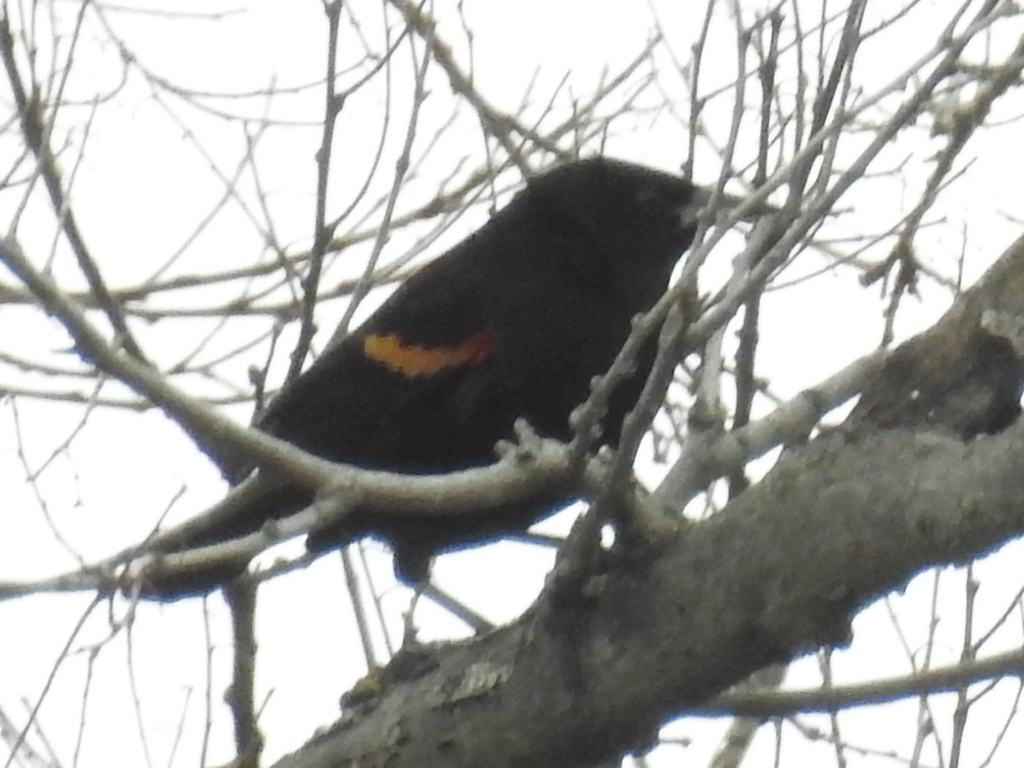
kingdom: Animalia
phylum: Chordata
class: Aves
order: Passeriformes
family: Icteridae
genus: Agelaius
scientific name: Agelaius phoeniceus
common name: Red-winged blackbird
